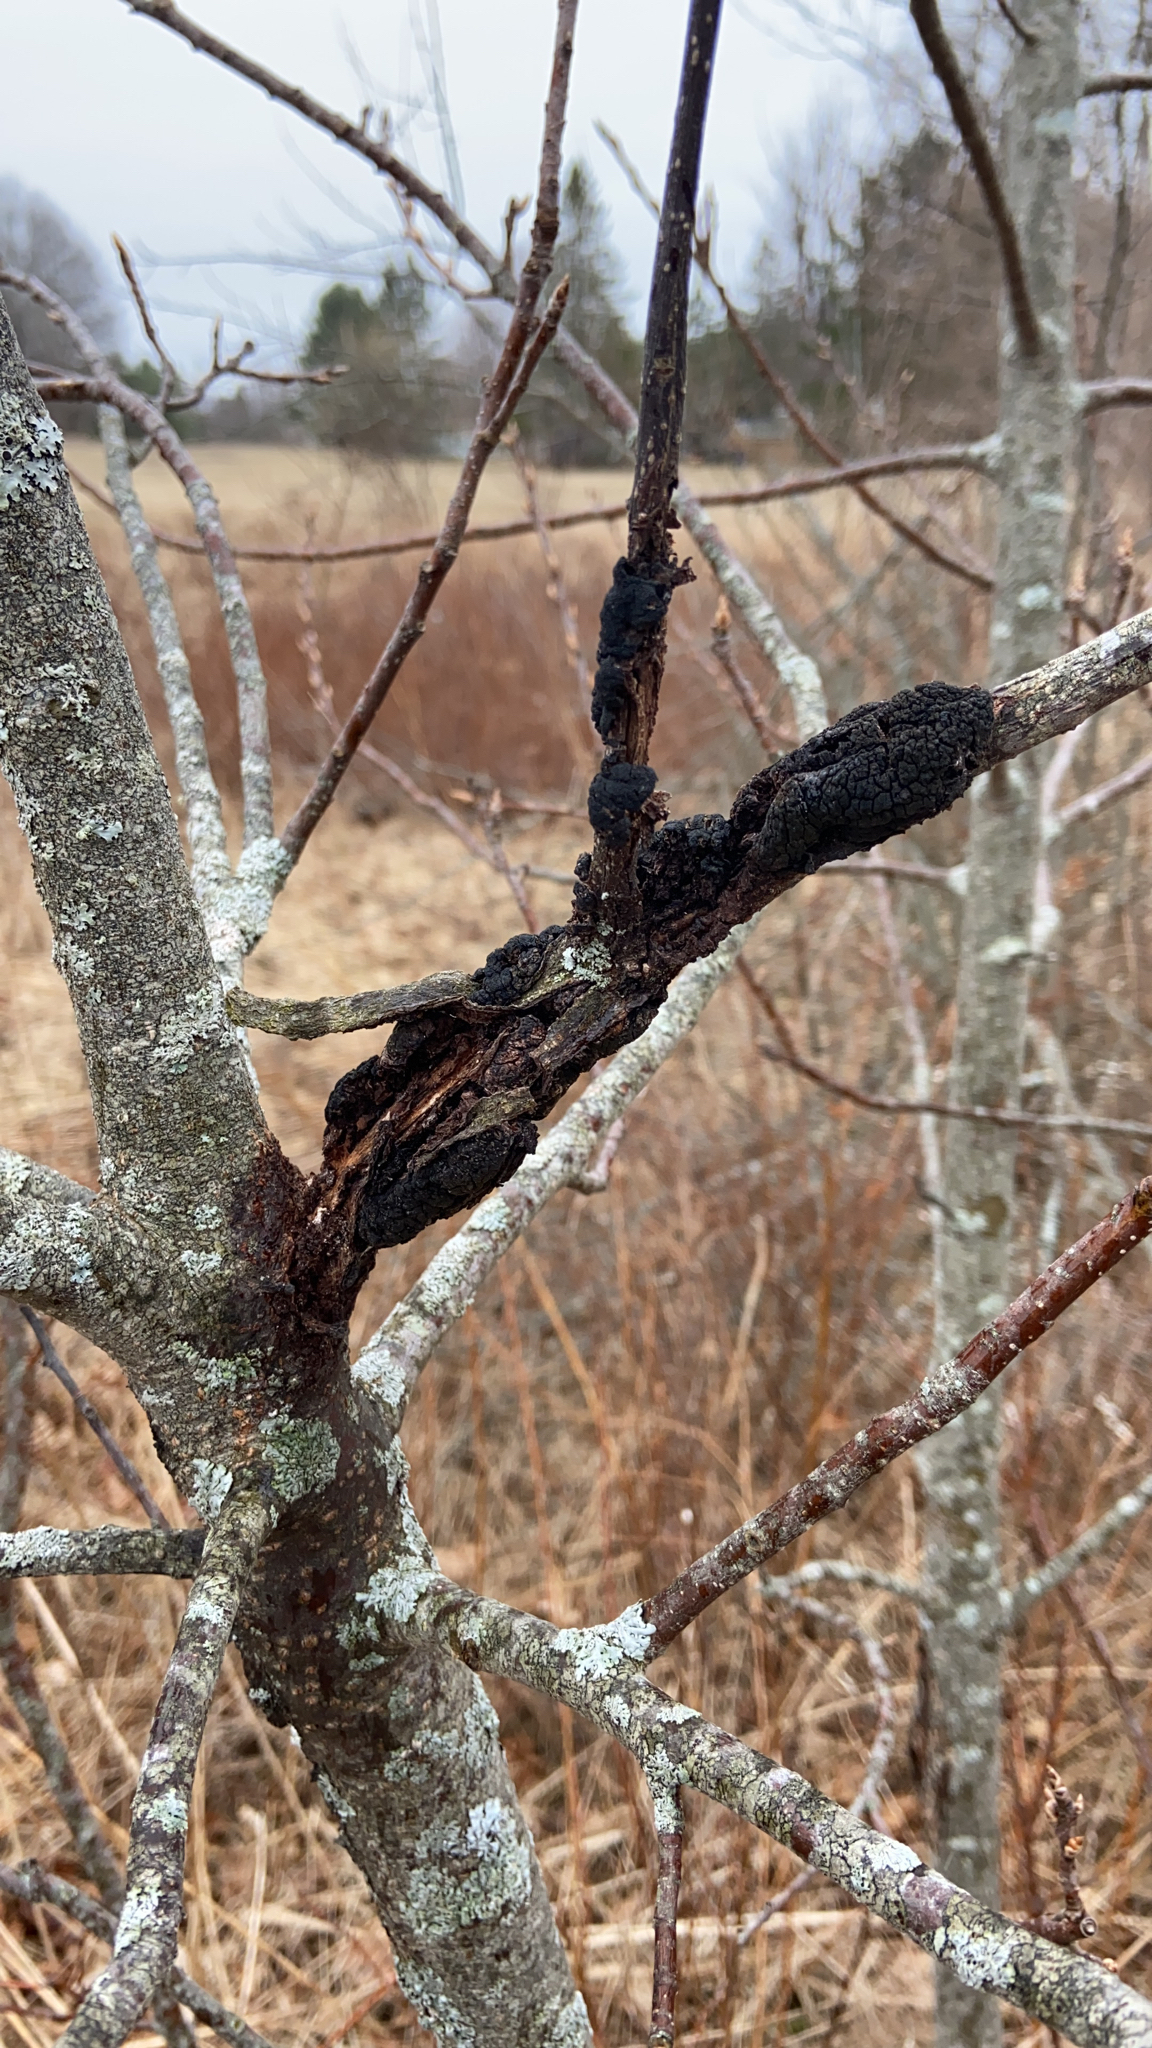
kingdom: Fungi
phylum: Ascomycota
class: Dothideomycetes
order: Venturiales
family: Venturiaceae
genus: Apiosporina
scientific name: Apiosporina morbosa
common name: Black knot
